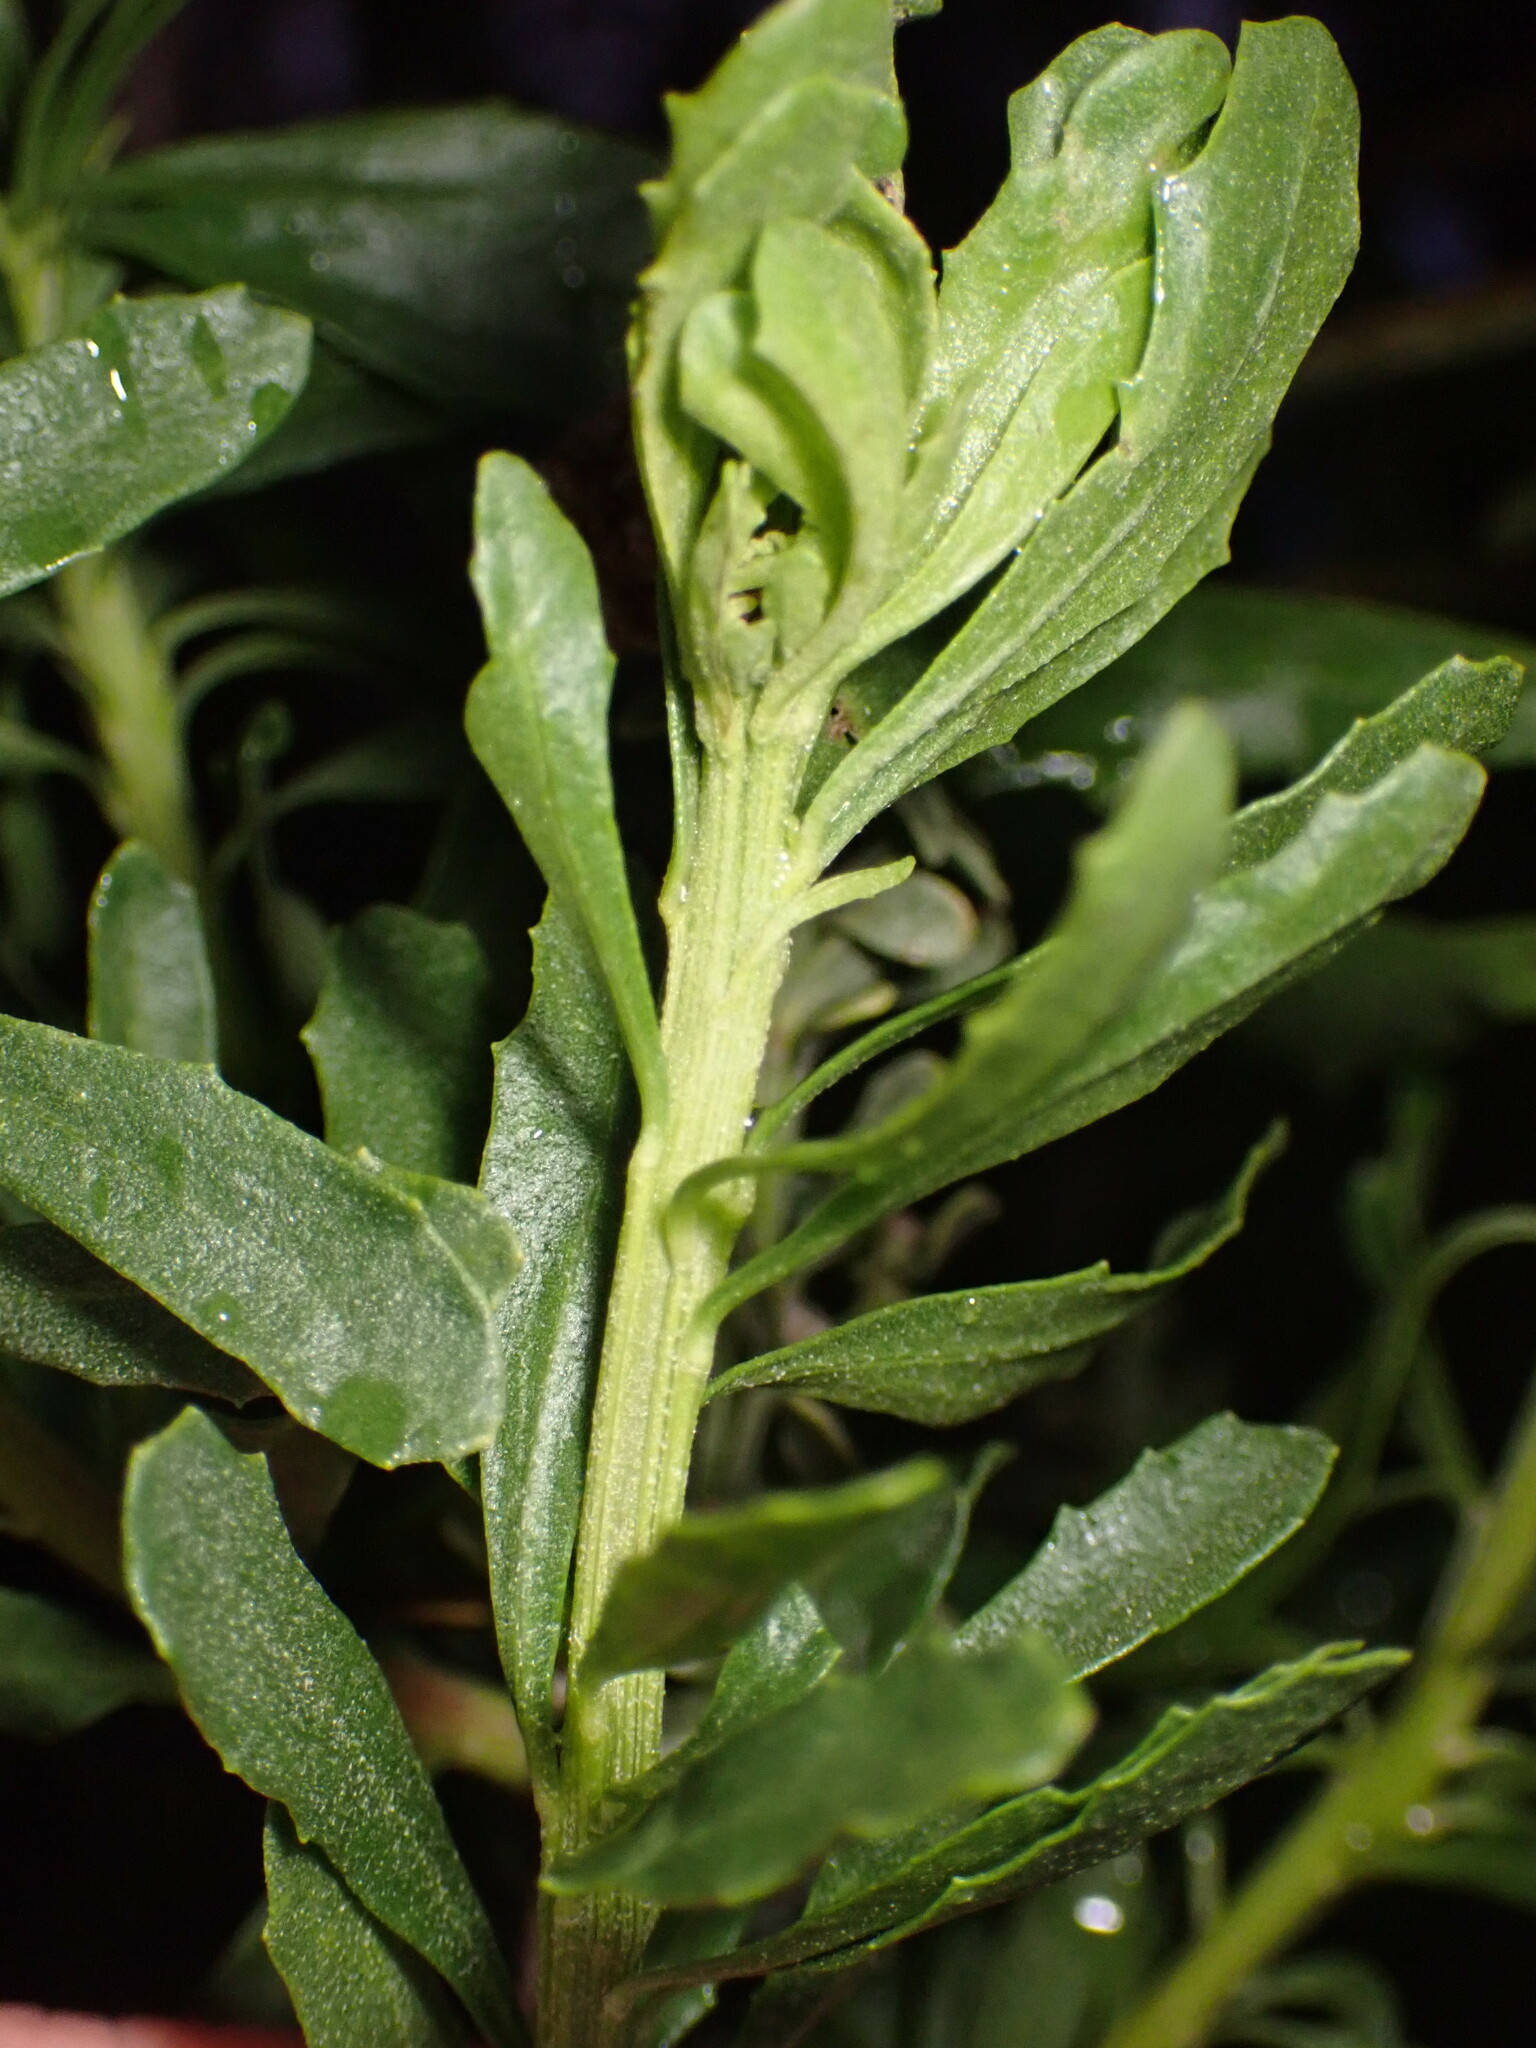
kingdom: Plantae
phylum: Tracheophyta
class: Magnoliopsida
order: Asterales
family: Asteraceae
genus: Baccharis
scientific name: Baccharis pilularis
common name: Coyotebrush
